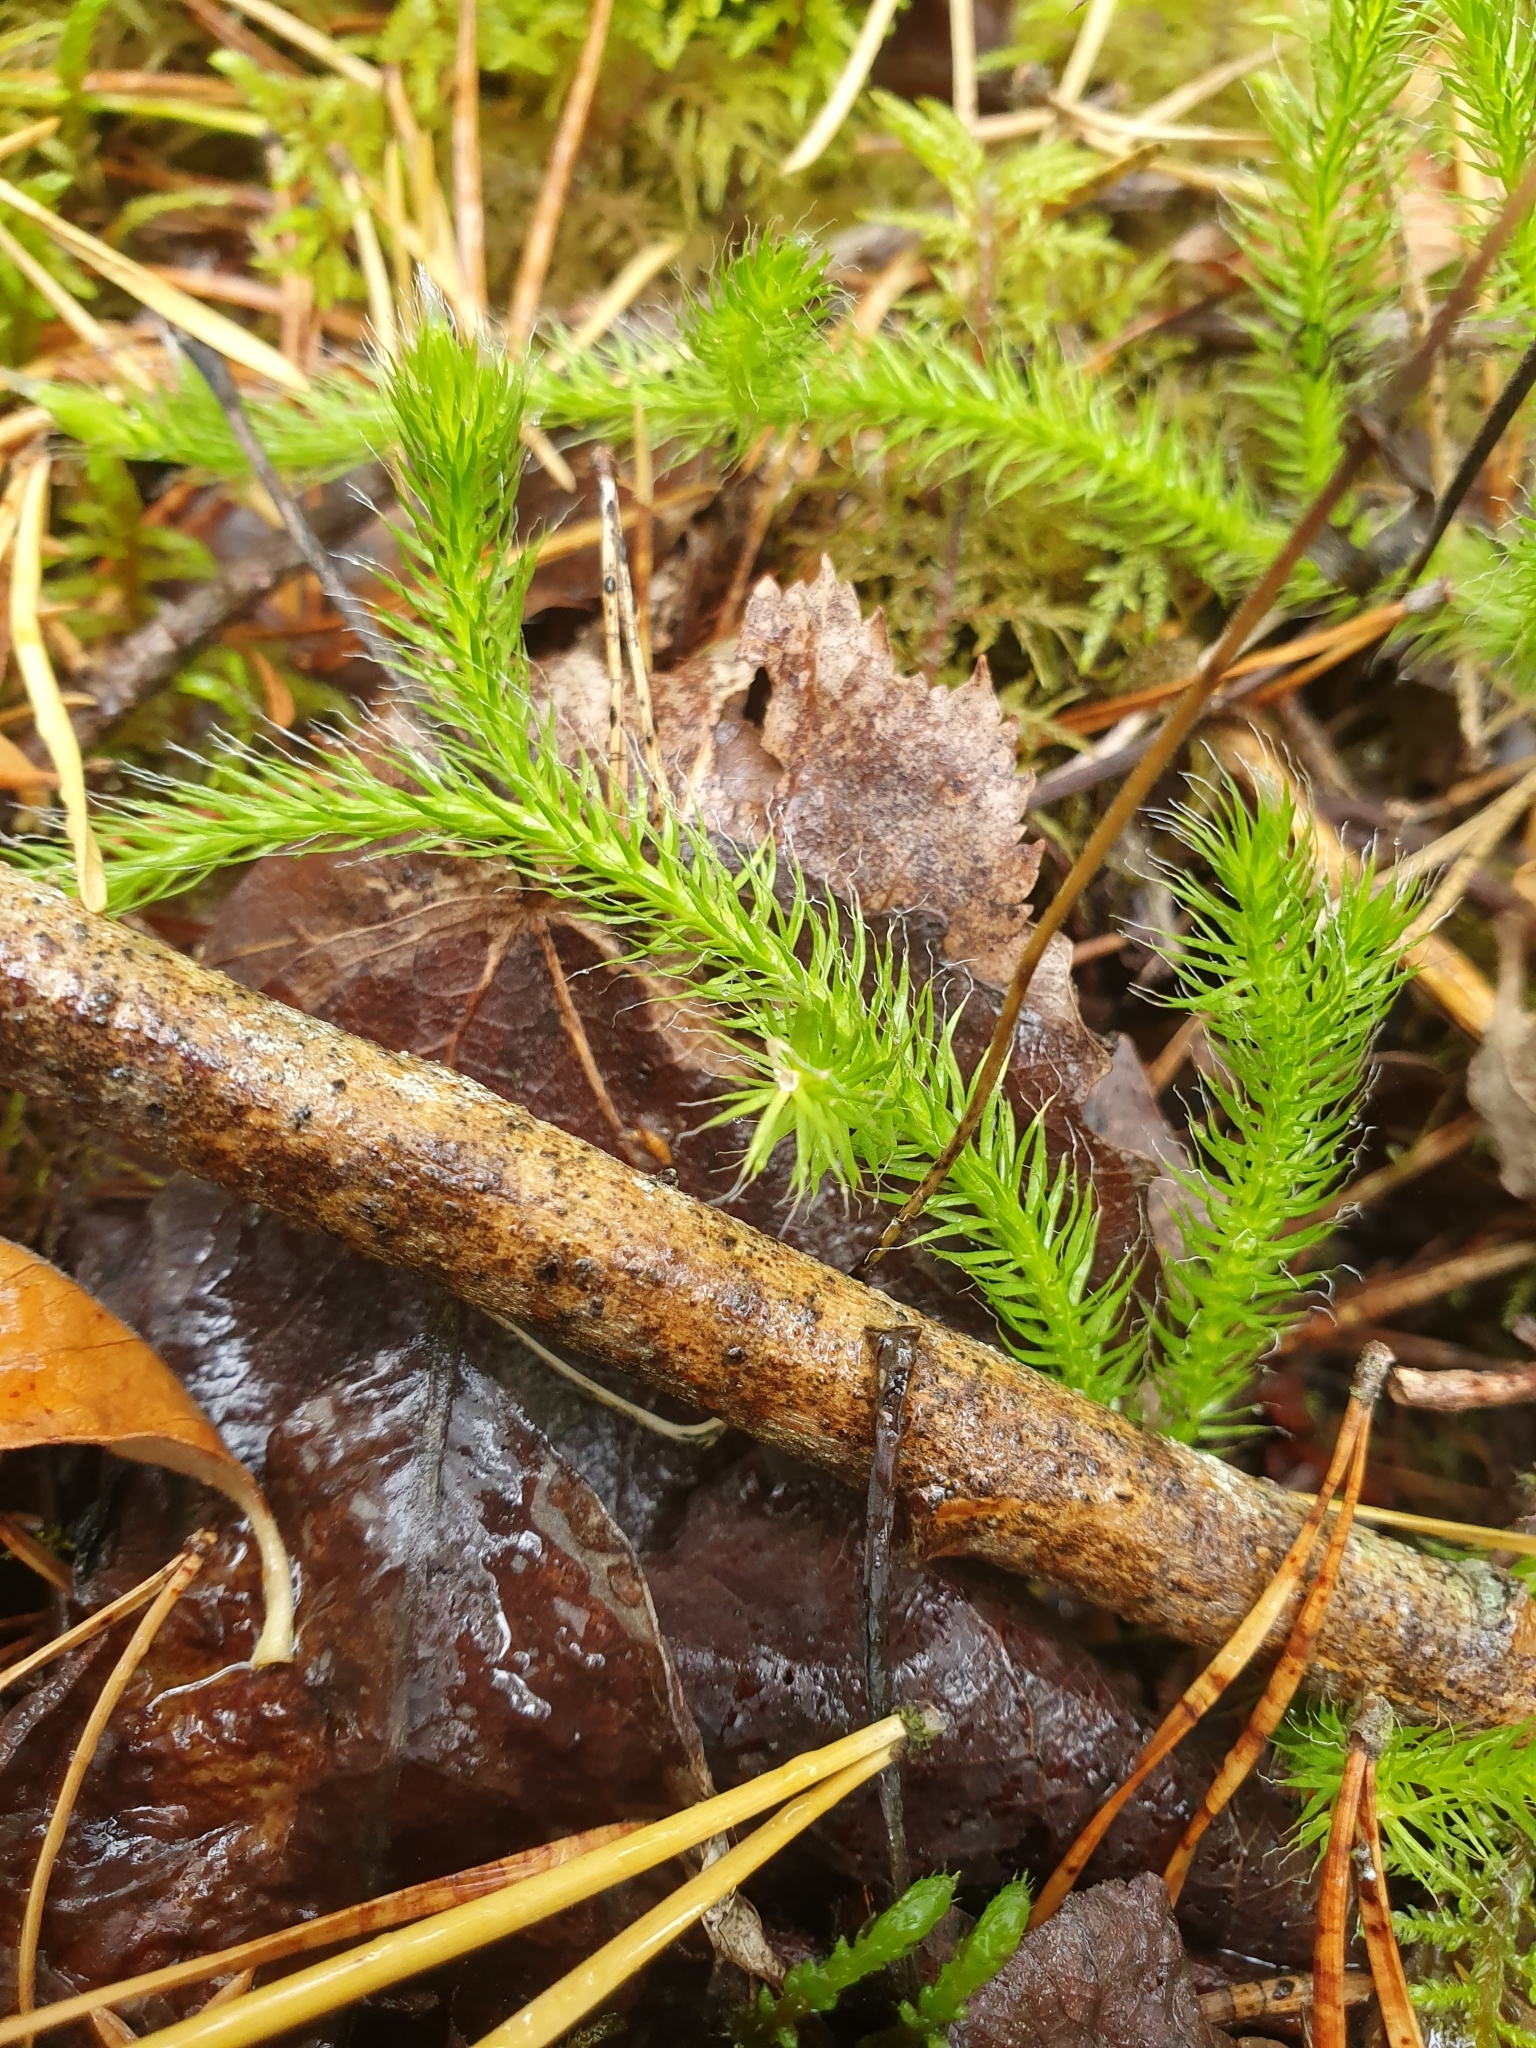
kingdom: Plantae
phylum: Tracheophyta
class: Lycopodiopsida
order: Lycopodiales
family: Lycopodiaceae
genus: Lycopodium
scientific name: Lycopodium clavatum
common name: Stag's-horn clubmoss
